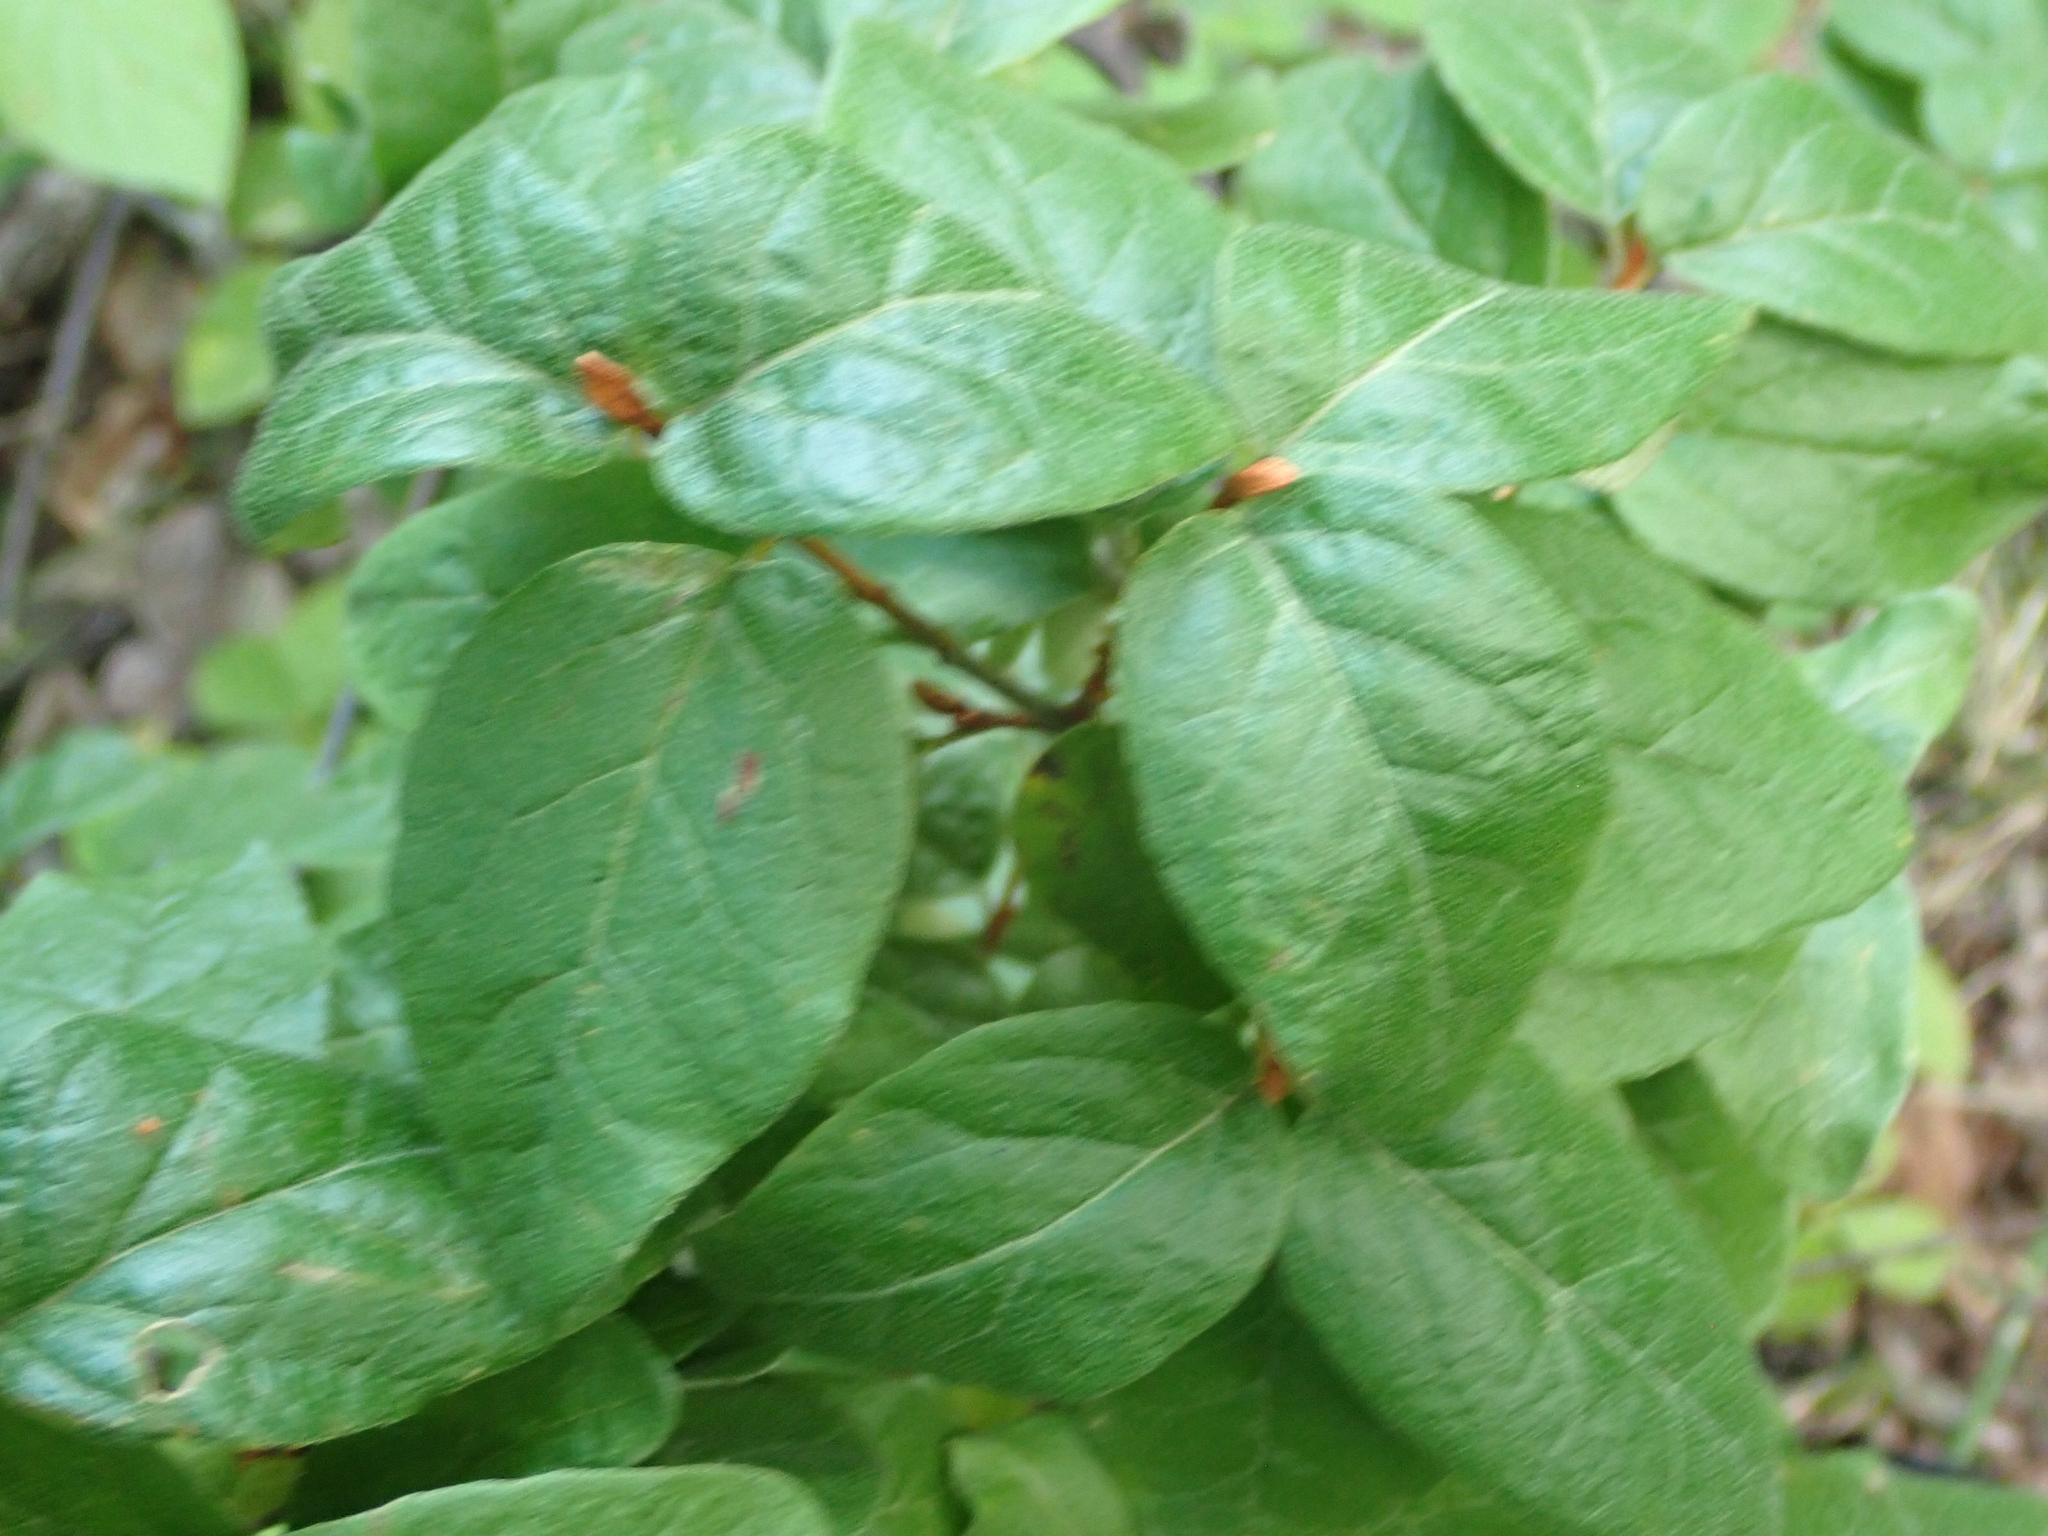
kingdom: Plantae
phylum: Tracheophyta
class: Magnoliopsida
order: Rosales
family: Elaeagnaceae
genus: Shepherdia
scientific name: Shepherdia canadensis
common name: Soapberry
